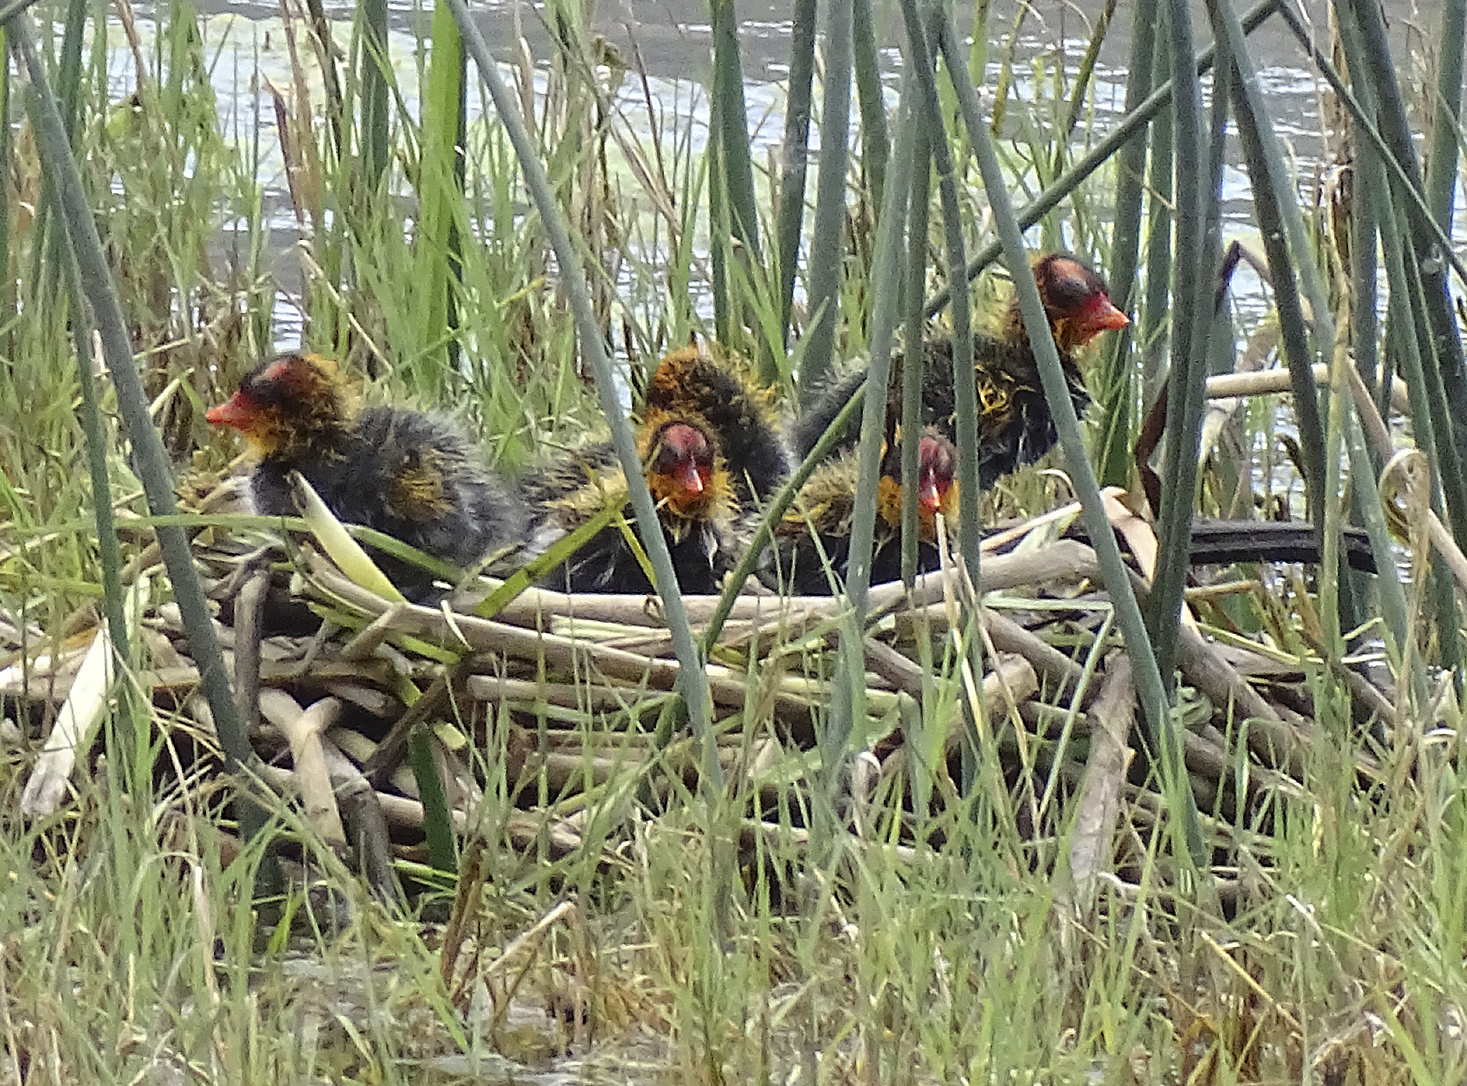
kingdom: Animalia
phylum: Chordata
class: Aves
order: Gruiformes
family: Rallidae
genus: Fulica
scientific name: Fulica americana
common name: American coot
